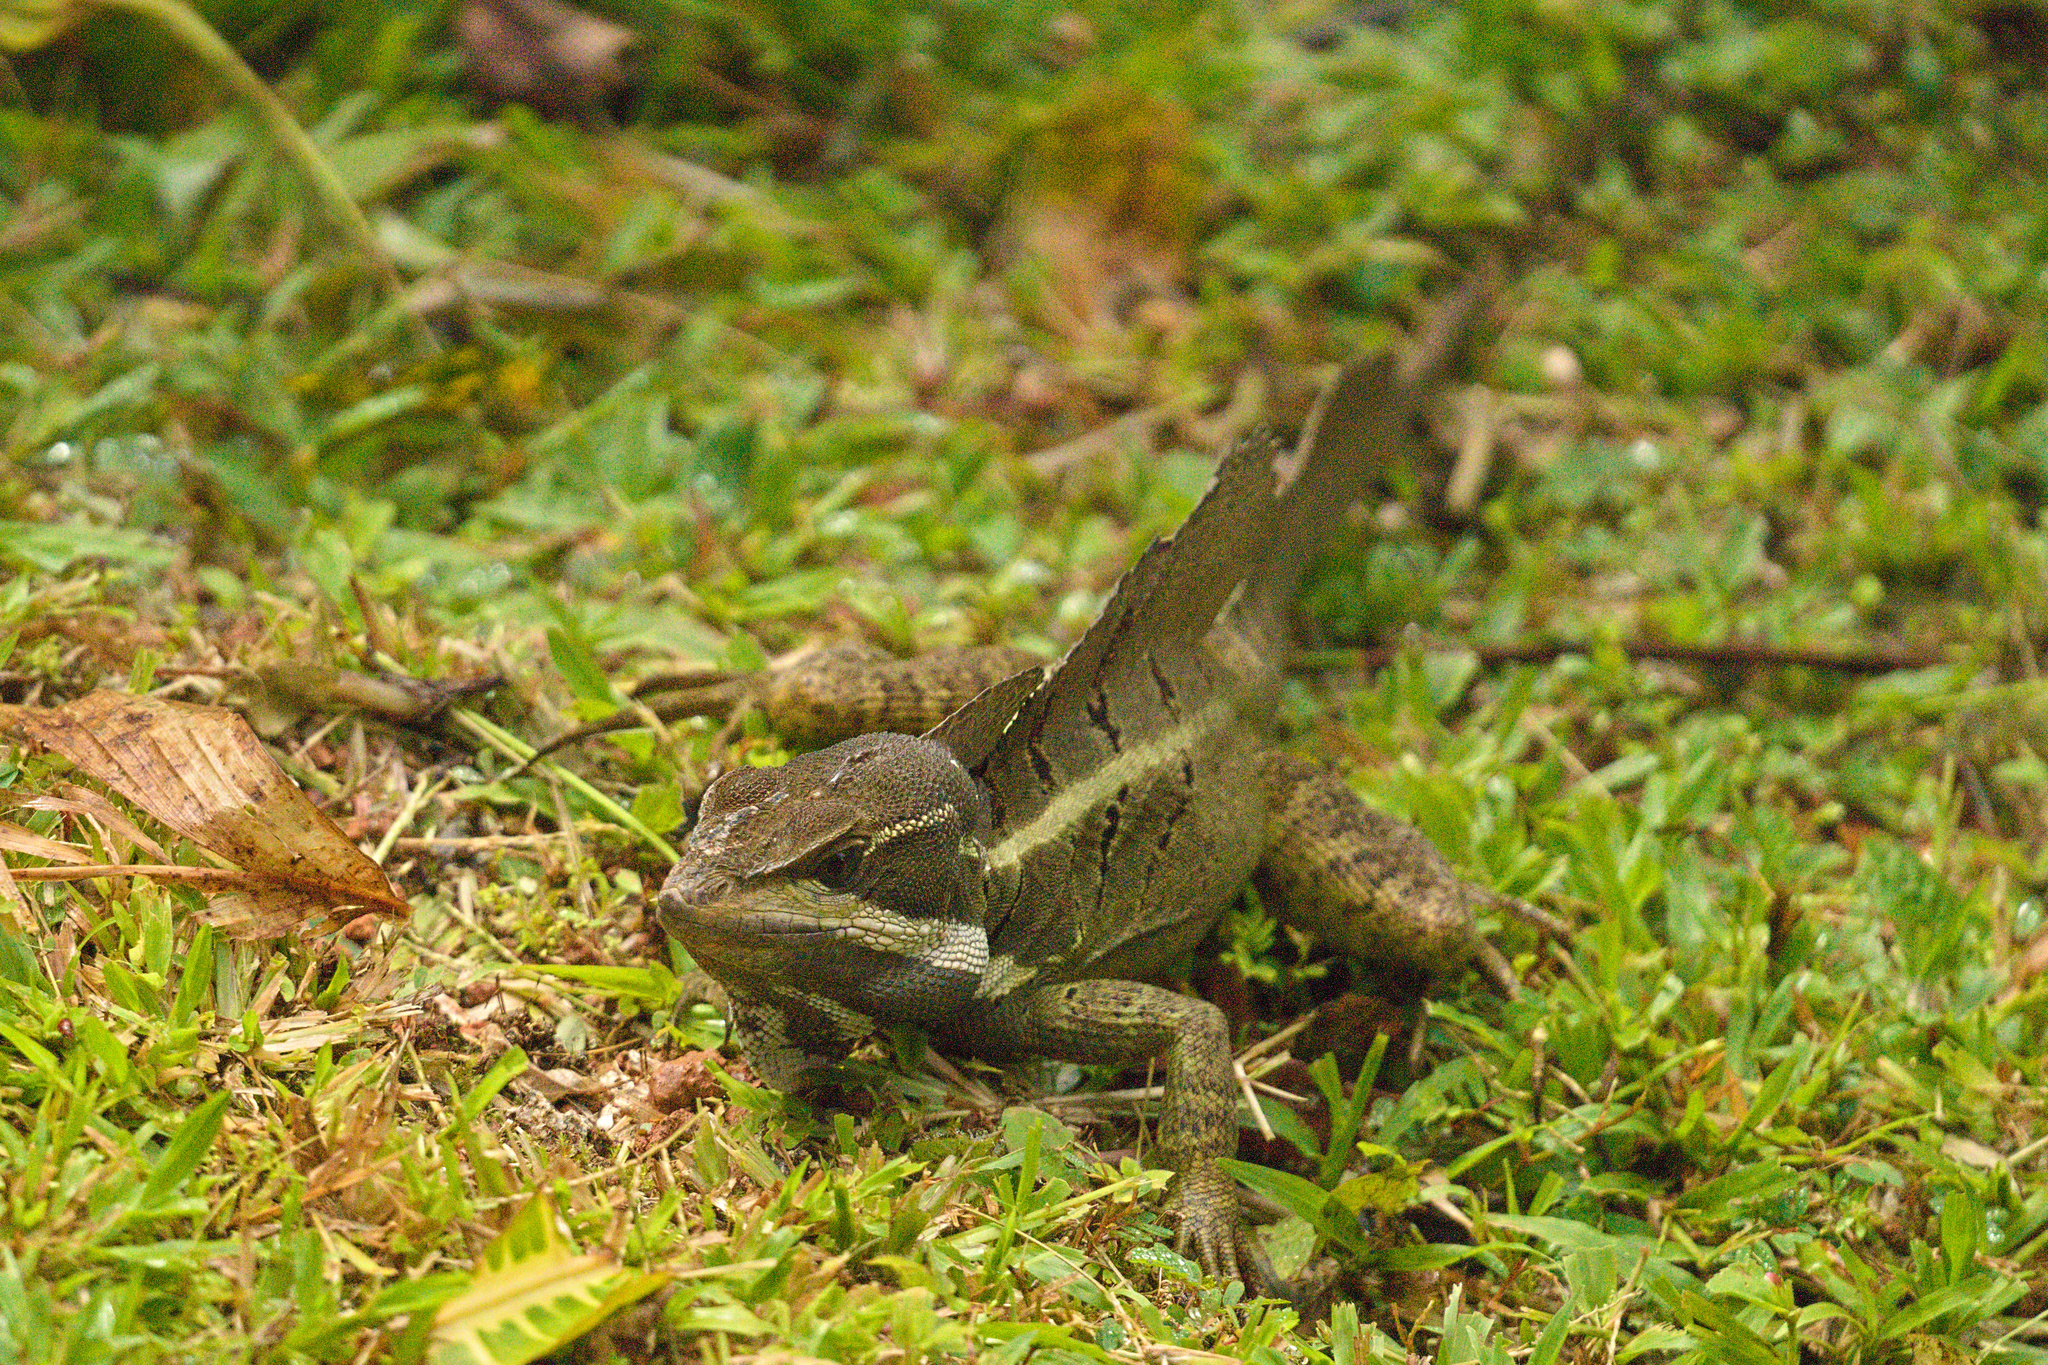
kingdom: Animalia
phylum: Chordata
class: Squamata
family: Corytophanidae
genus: Basiliscus
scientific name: Basiliscus basiliscus
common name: Common basilisk
